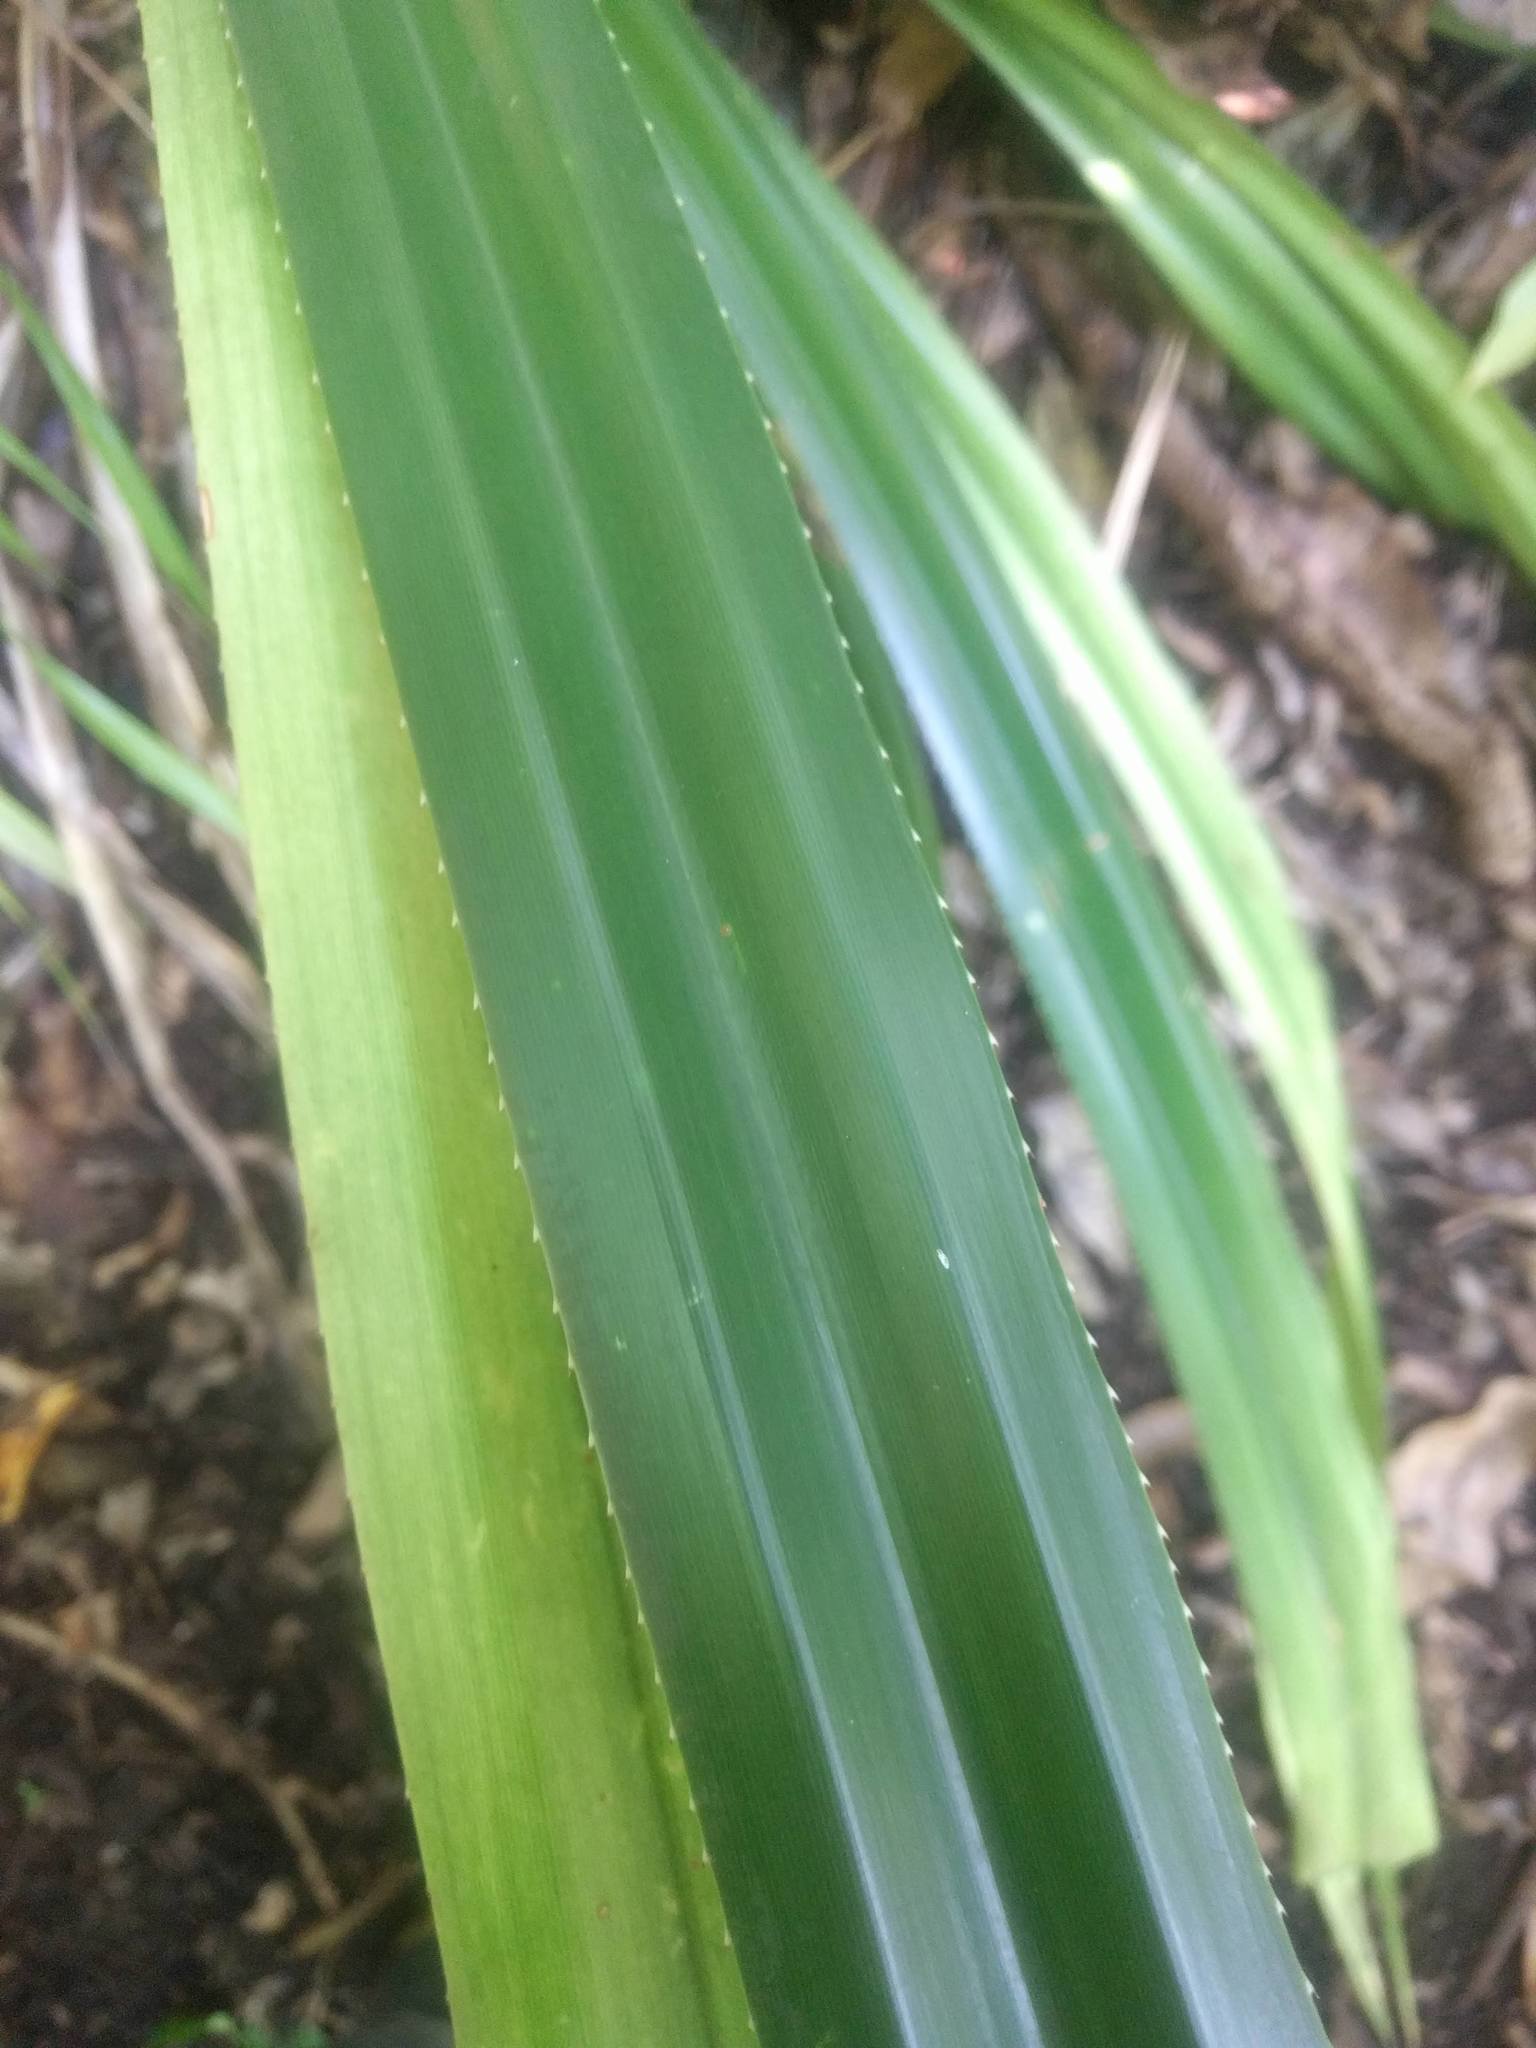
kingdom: Plantae
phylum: Tracheophyta
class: Liliopsida
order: Pandanales
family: Pandanaceae
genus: Pandanus
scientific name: Pandanus tectorius
